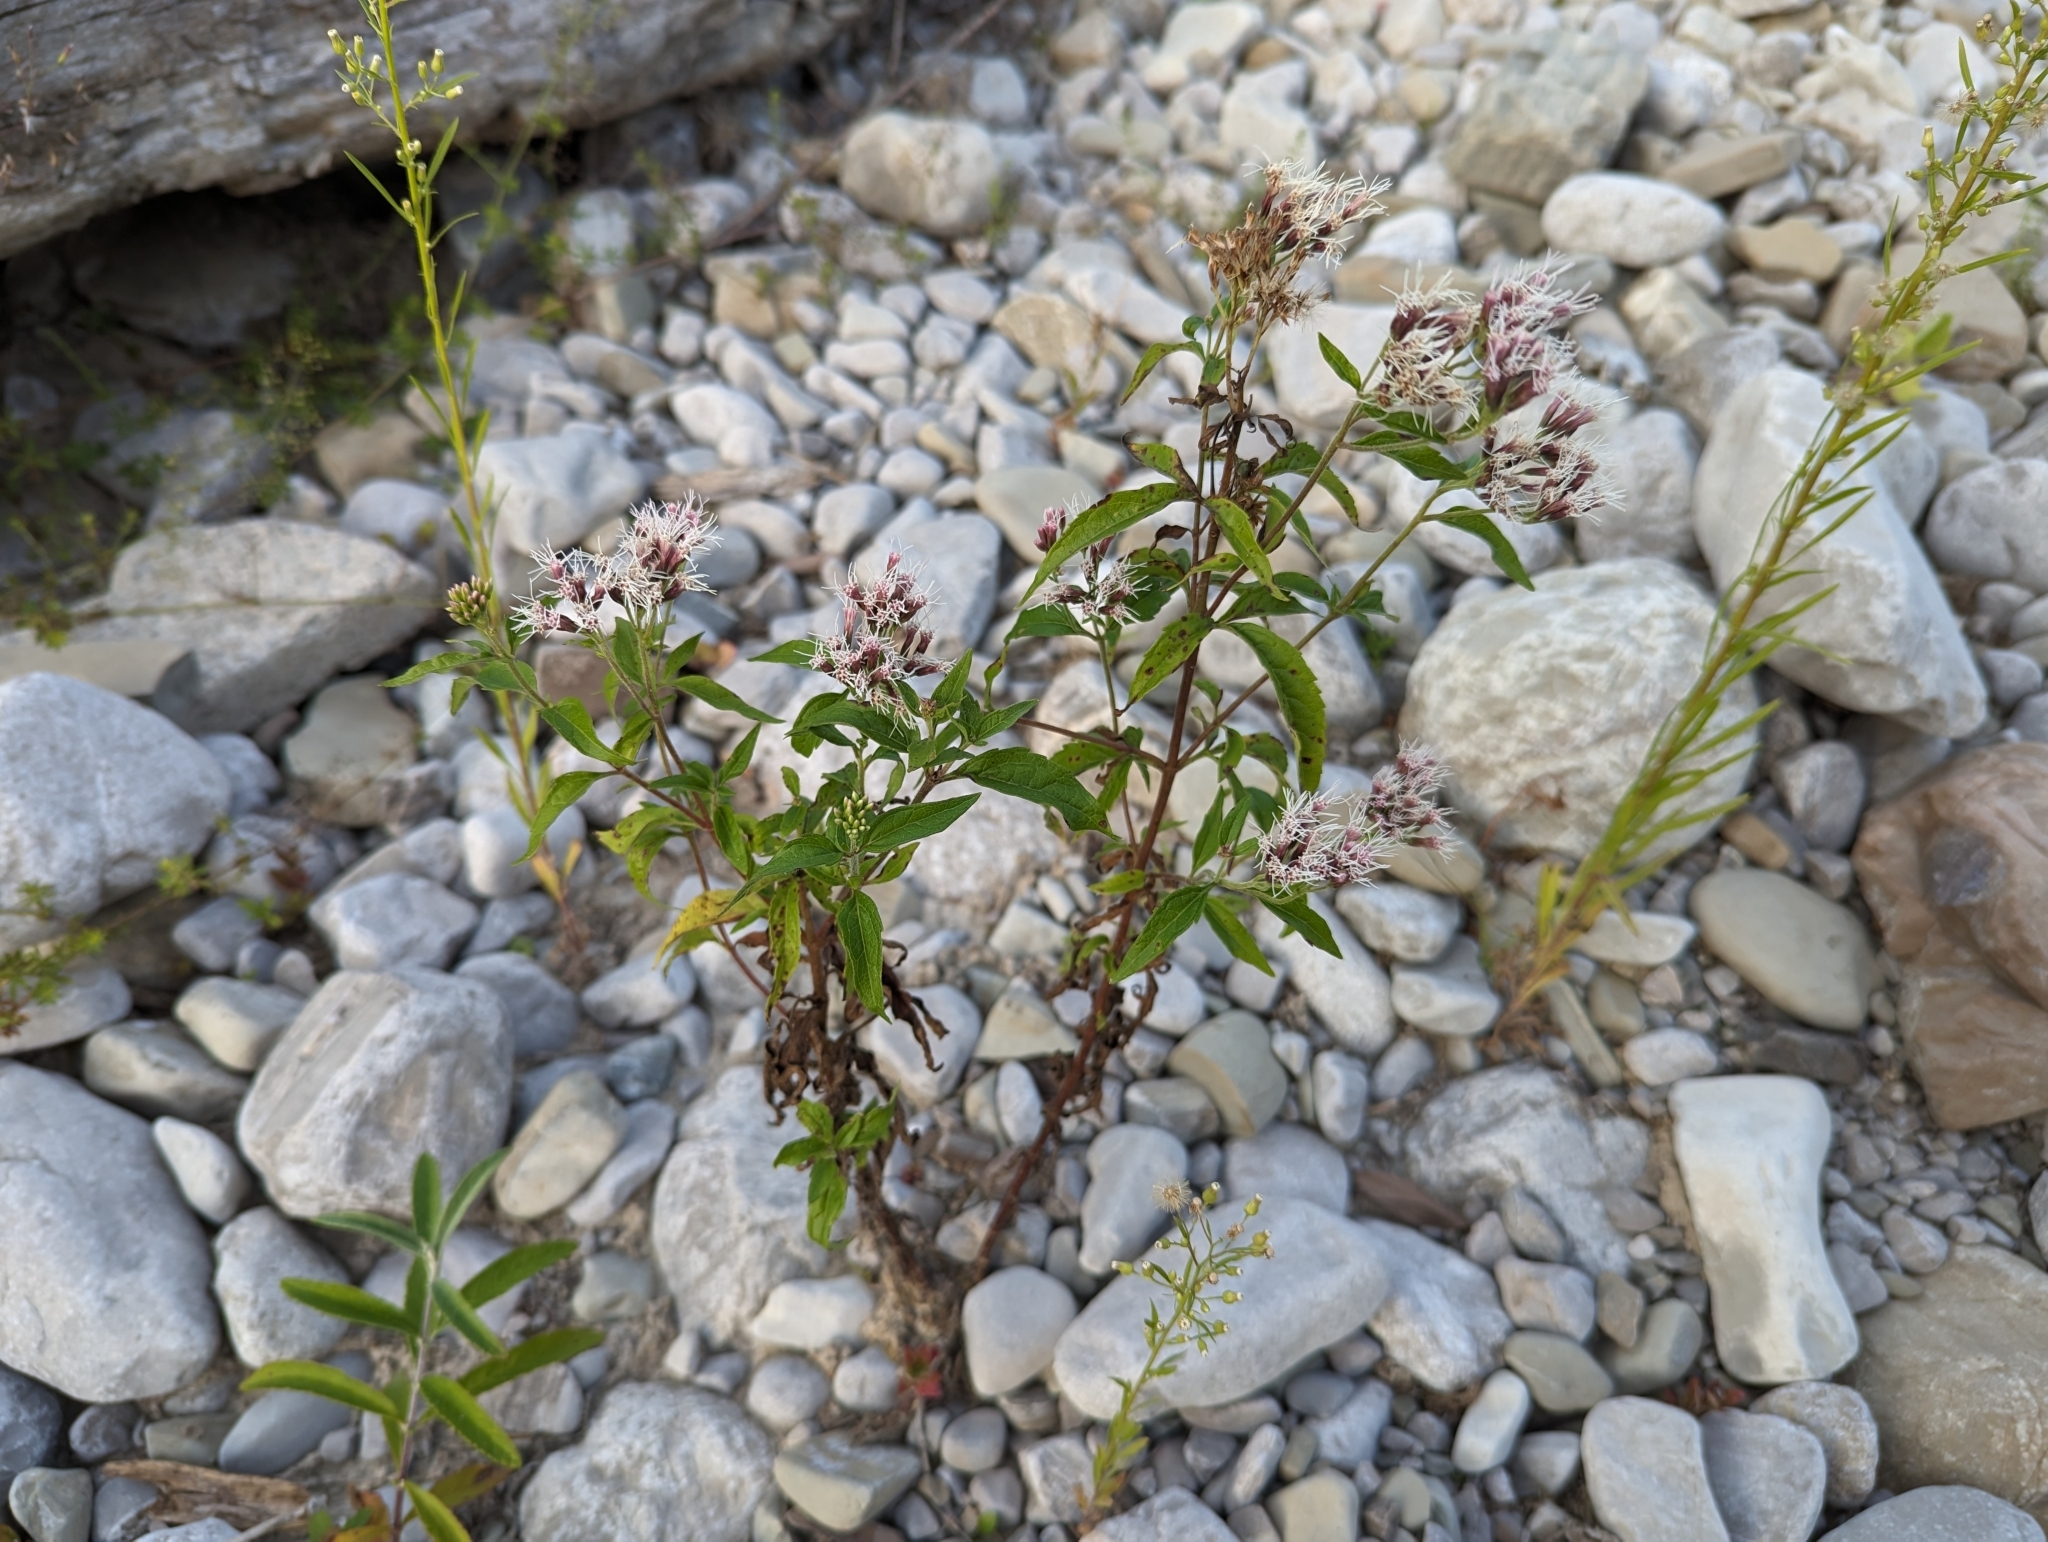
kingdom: Plantae
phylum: Tracheophyta
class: Magnoliopsida
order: Asterales
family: Asteraceae
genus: Eupatorium
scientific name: Eupatorium cannabinum
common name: Hemp-agrimony
